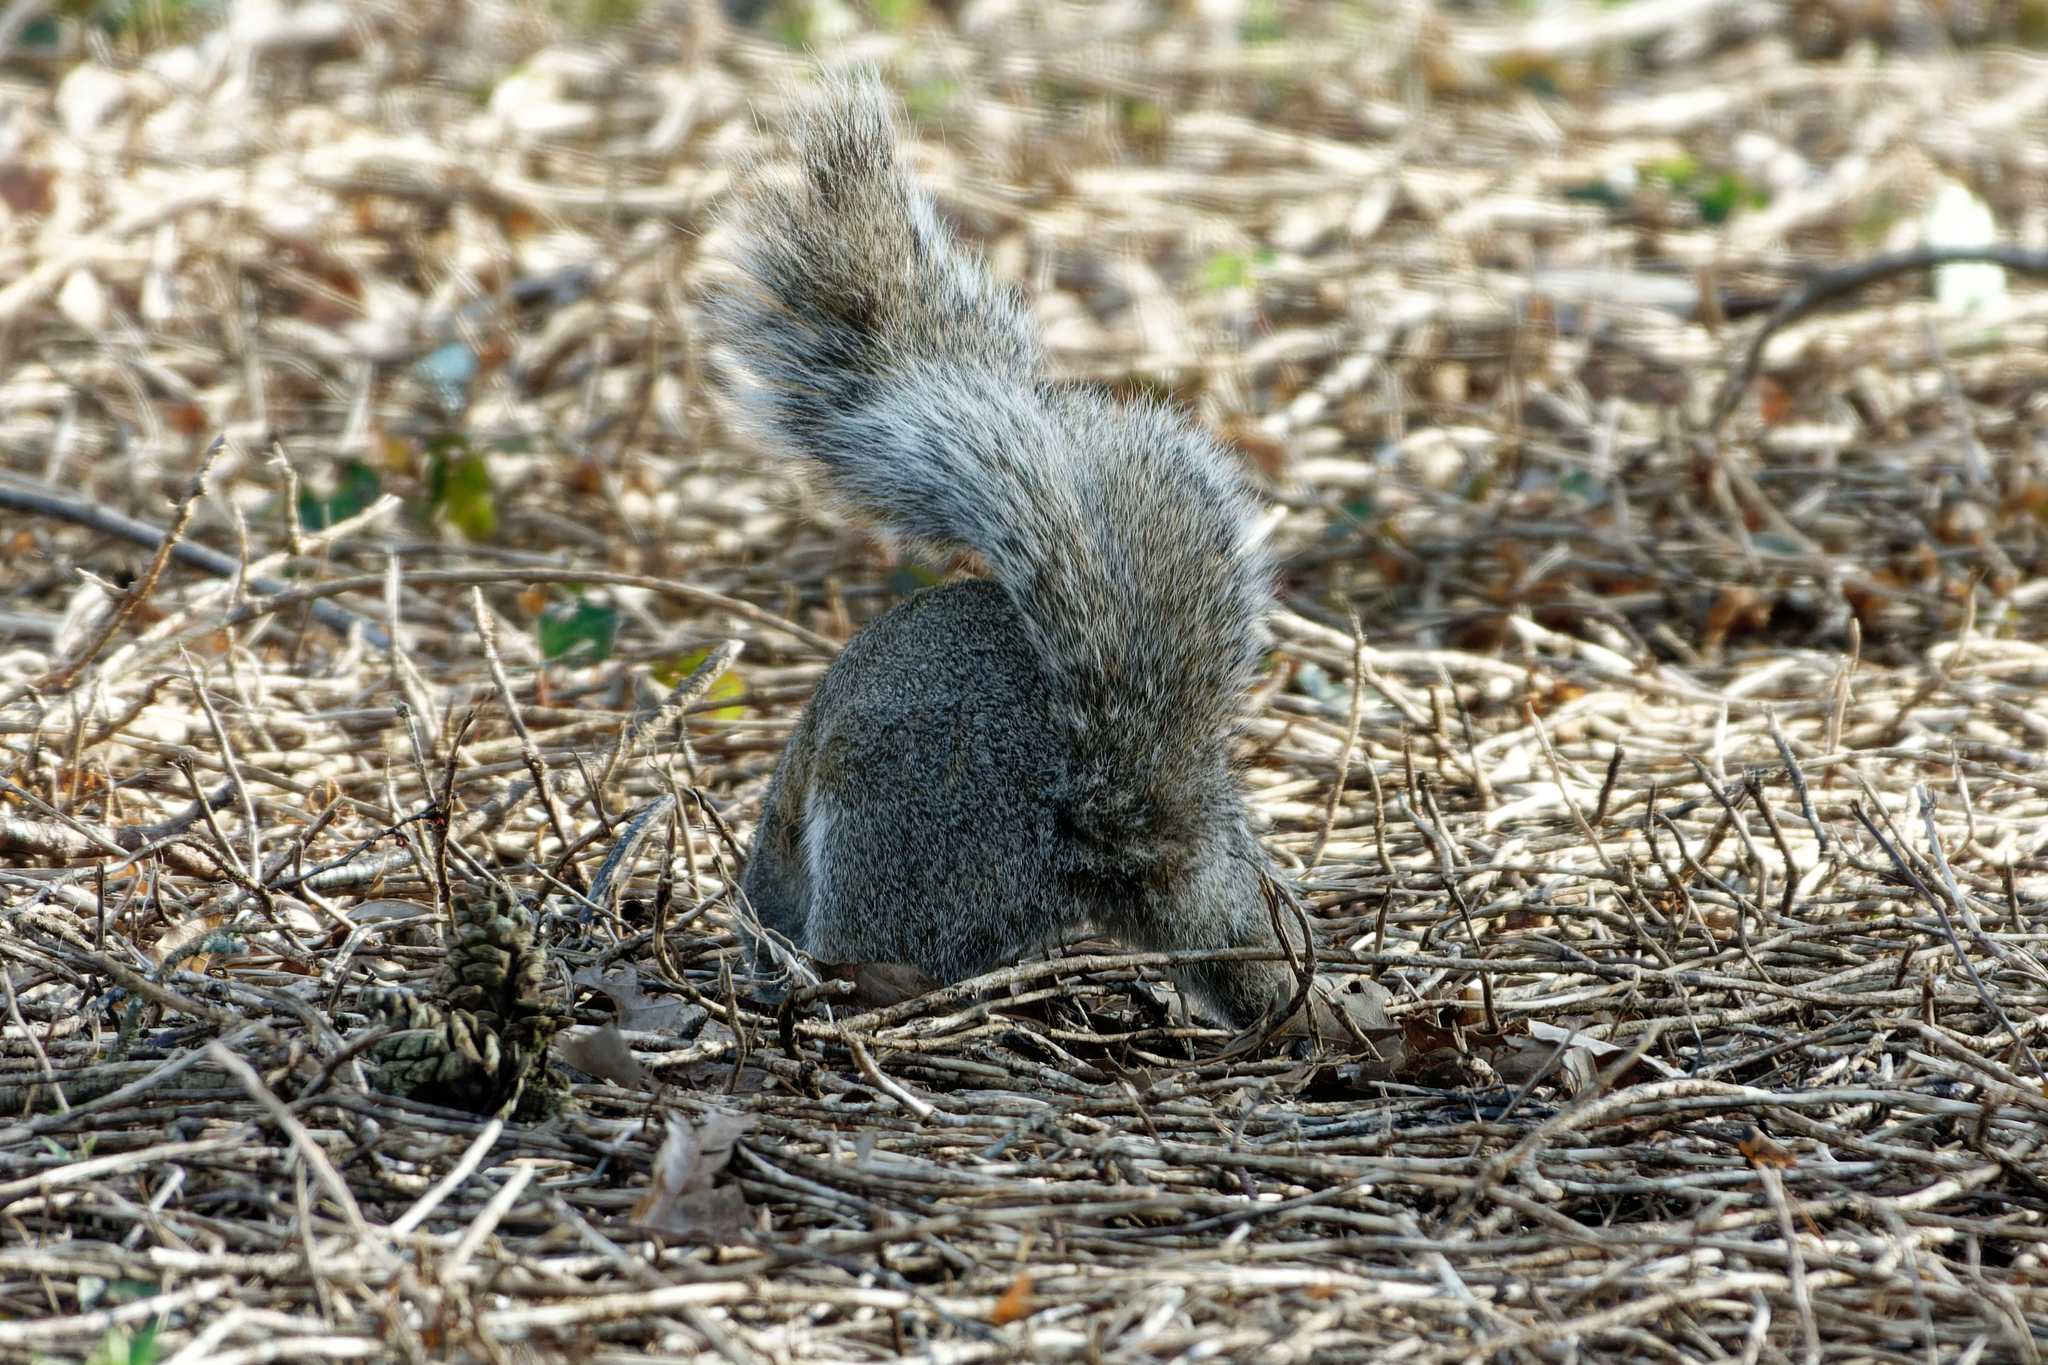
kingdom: Animalia
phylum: Chordata
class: Mammalia
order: Rodentia
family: Sciuridae
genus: Sciurus
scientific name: Sciurus carolinensis
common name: Eastern gray squirrel
